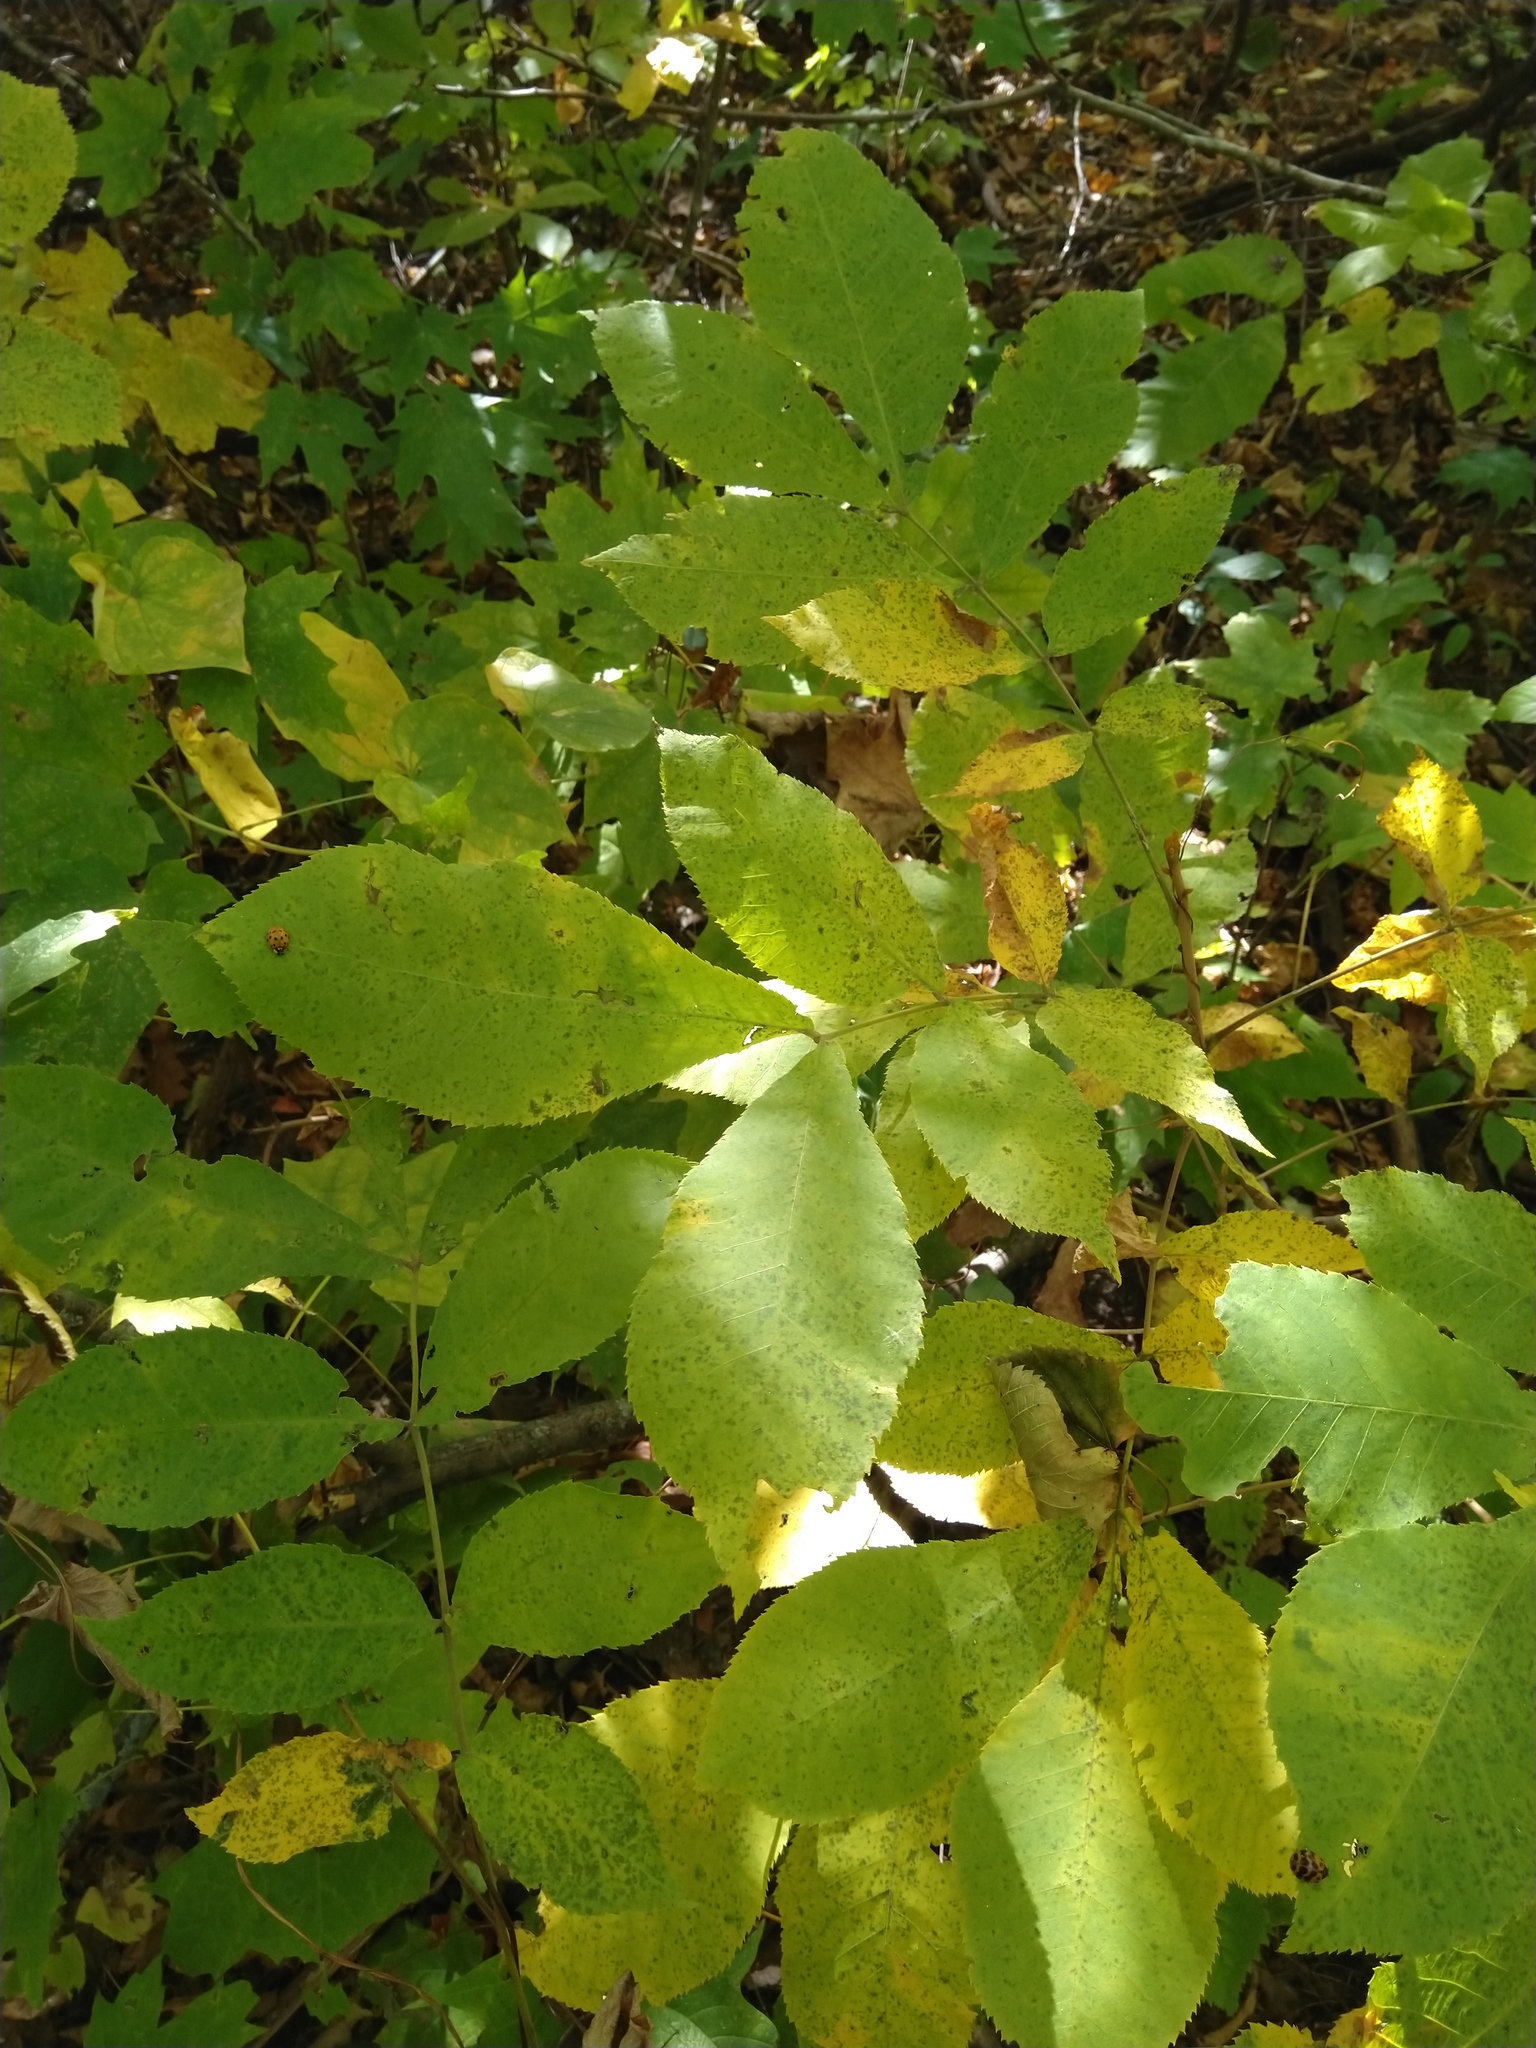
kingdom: Plantae
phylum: Tracheophyta
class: Magnoliopsida
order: Fagales
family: Juglandaceae
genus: Carya
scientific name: Carya cordiformis
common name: Bitternut hickory
